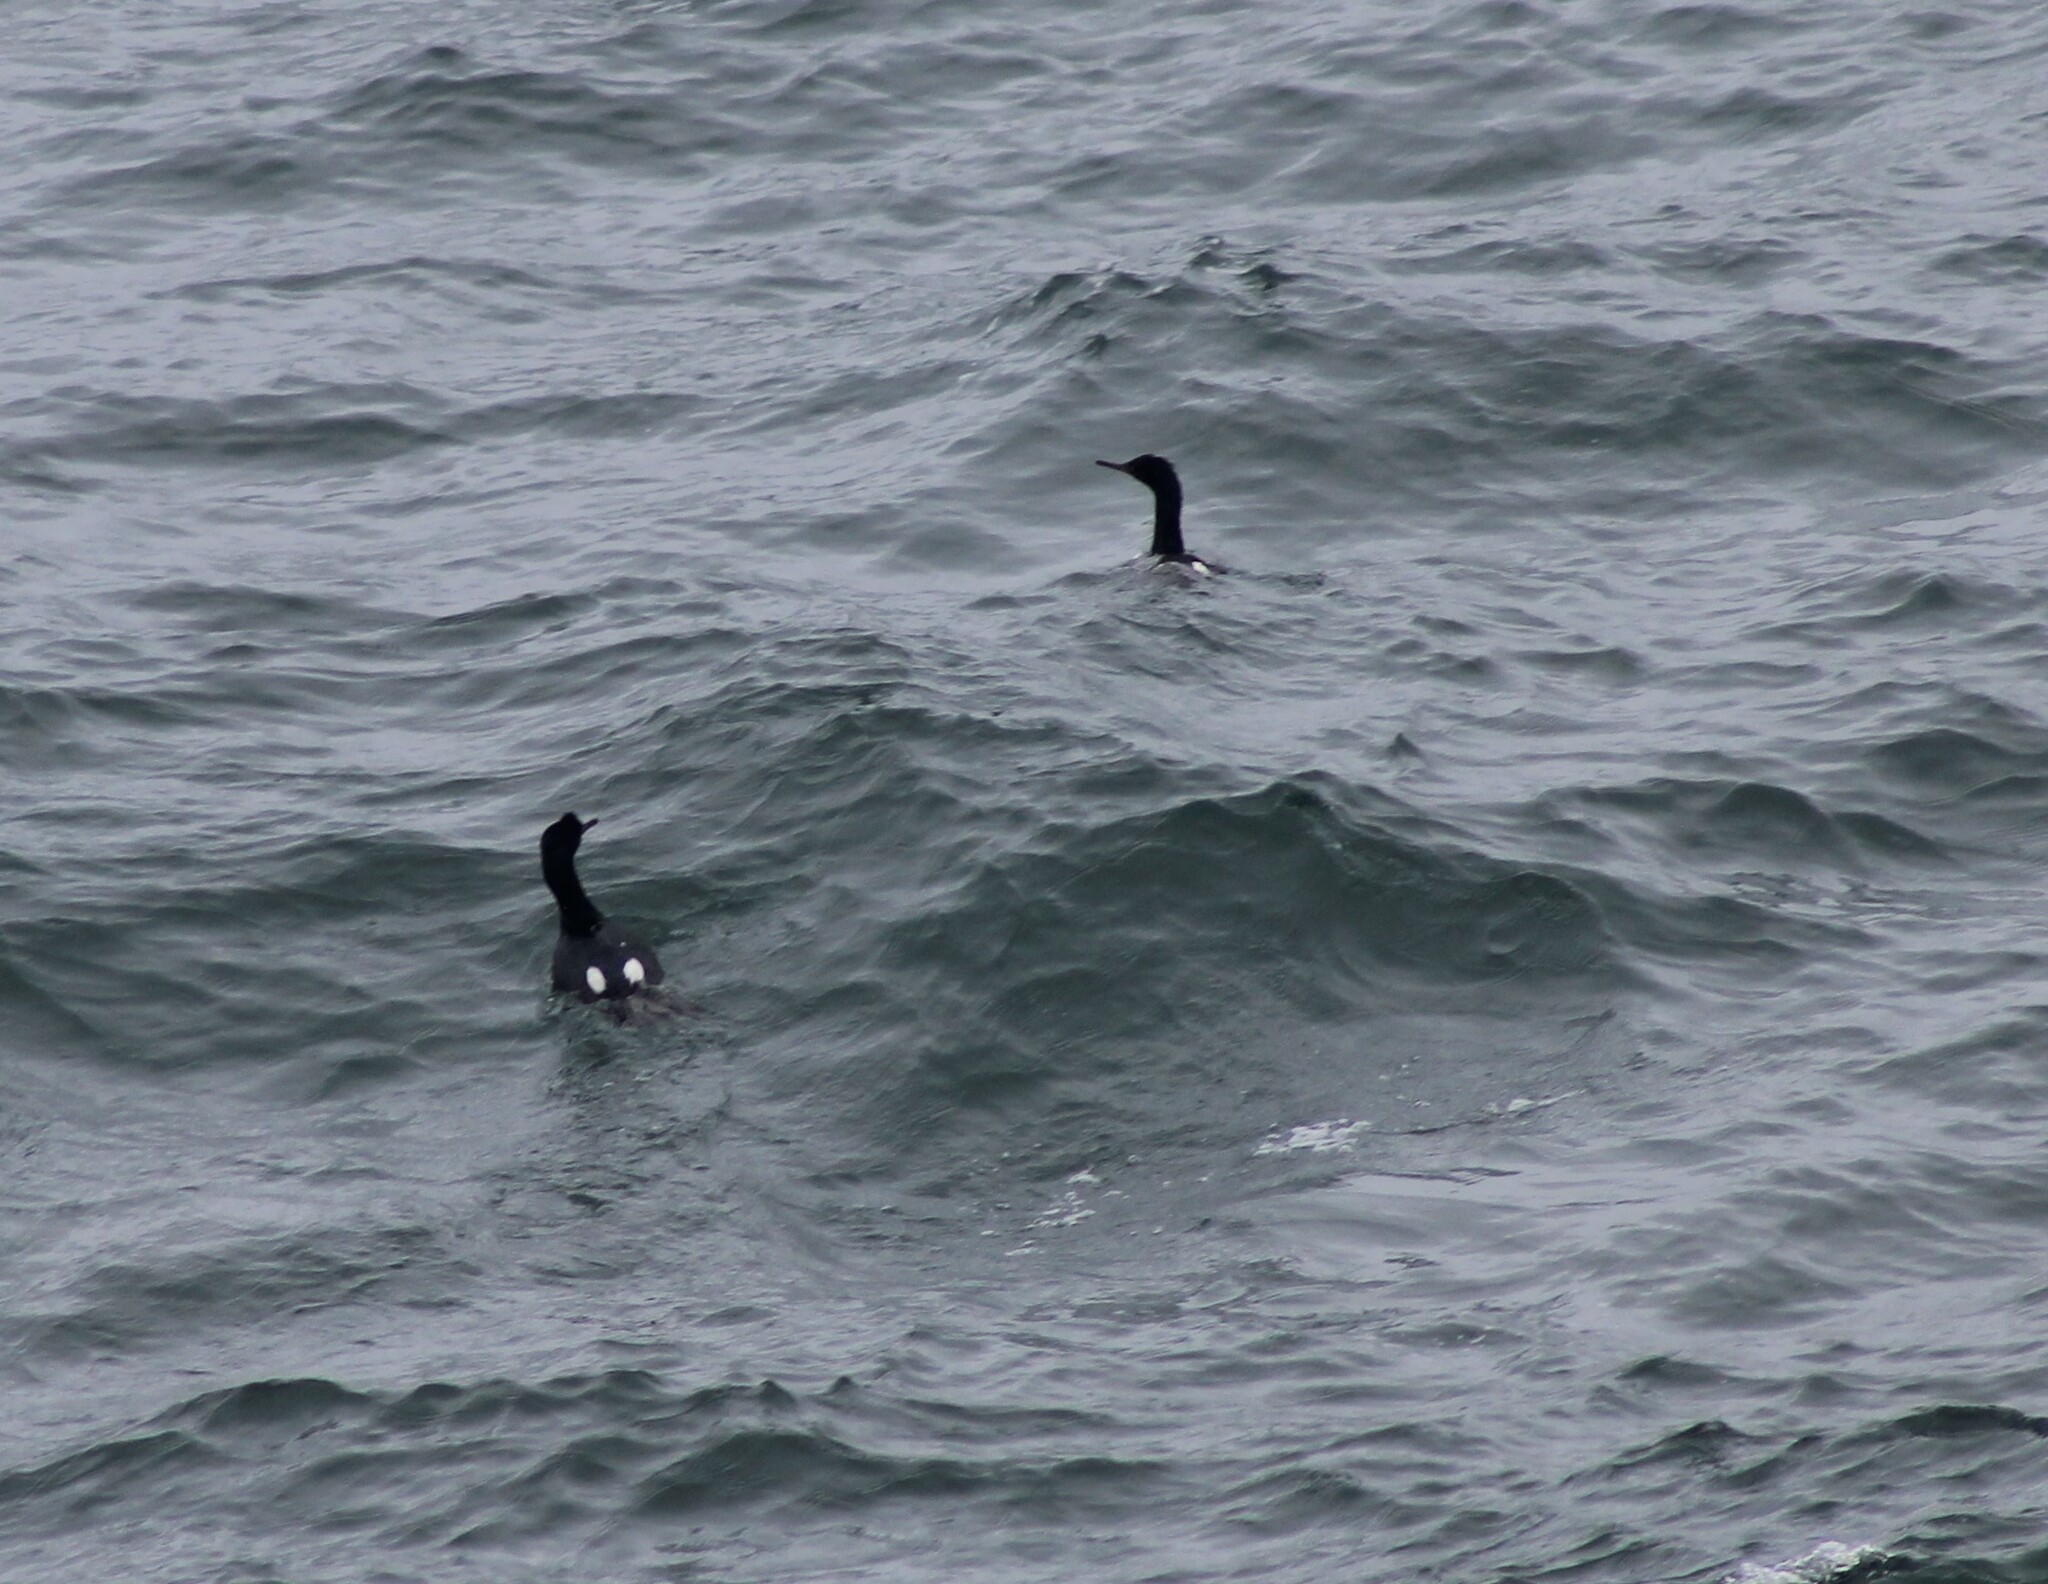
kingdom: Animalia
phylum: Chordata
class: Aves
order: Suliformes
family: Phalacrocoracidae
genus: Phalacrocorax
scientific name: Phalacrocorax pelagicus
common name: Pelagic cormorant
